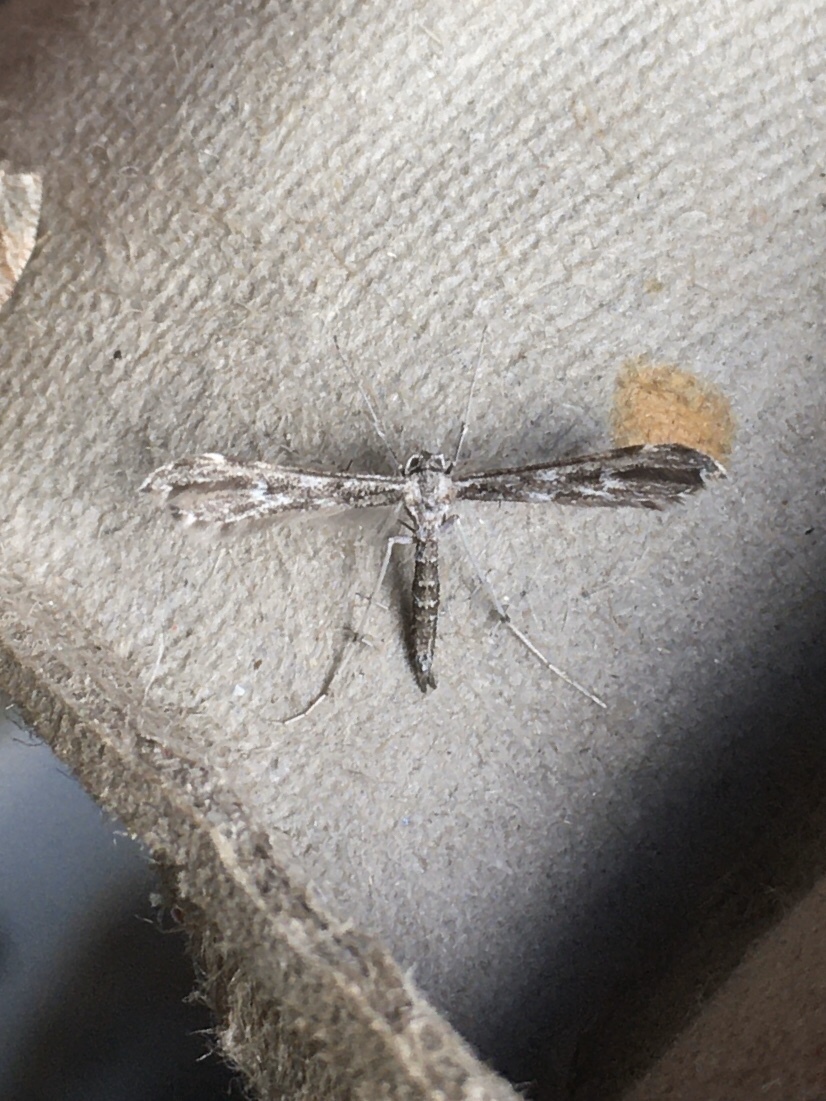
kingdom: Animalia
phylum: Arthropoda
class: Insecta
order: Lepidoptera
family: Pterophoridae
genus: Hellinsia
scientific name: Hellinsia inquinatus
